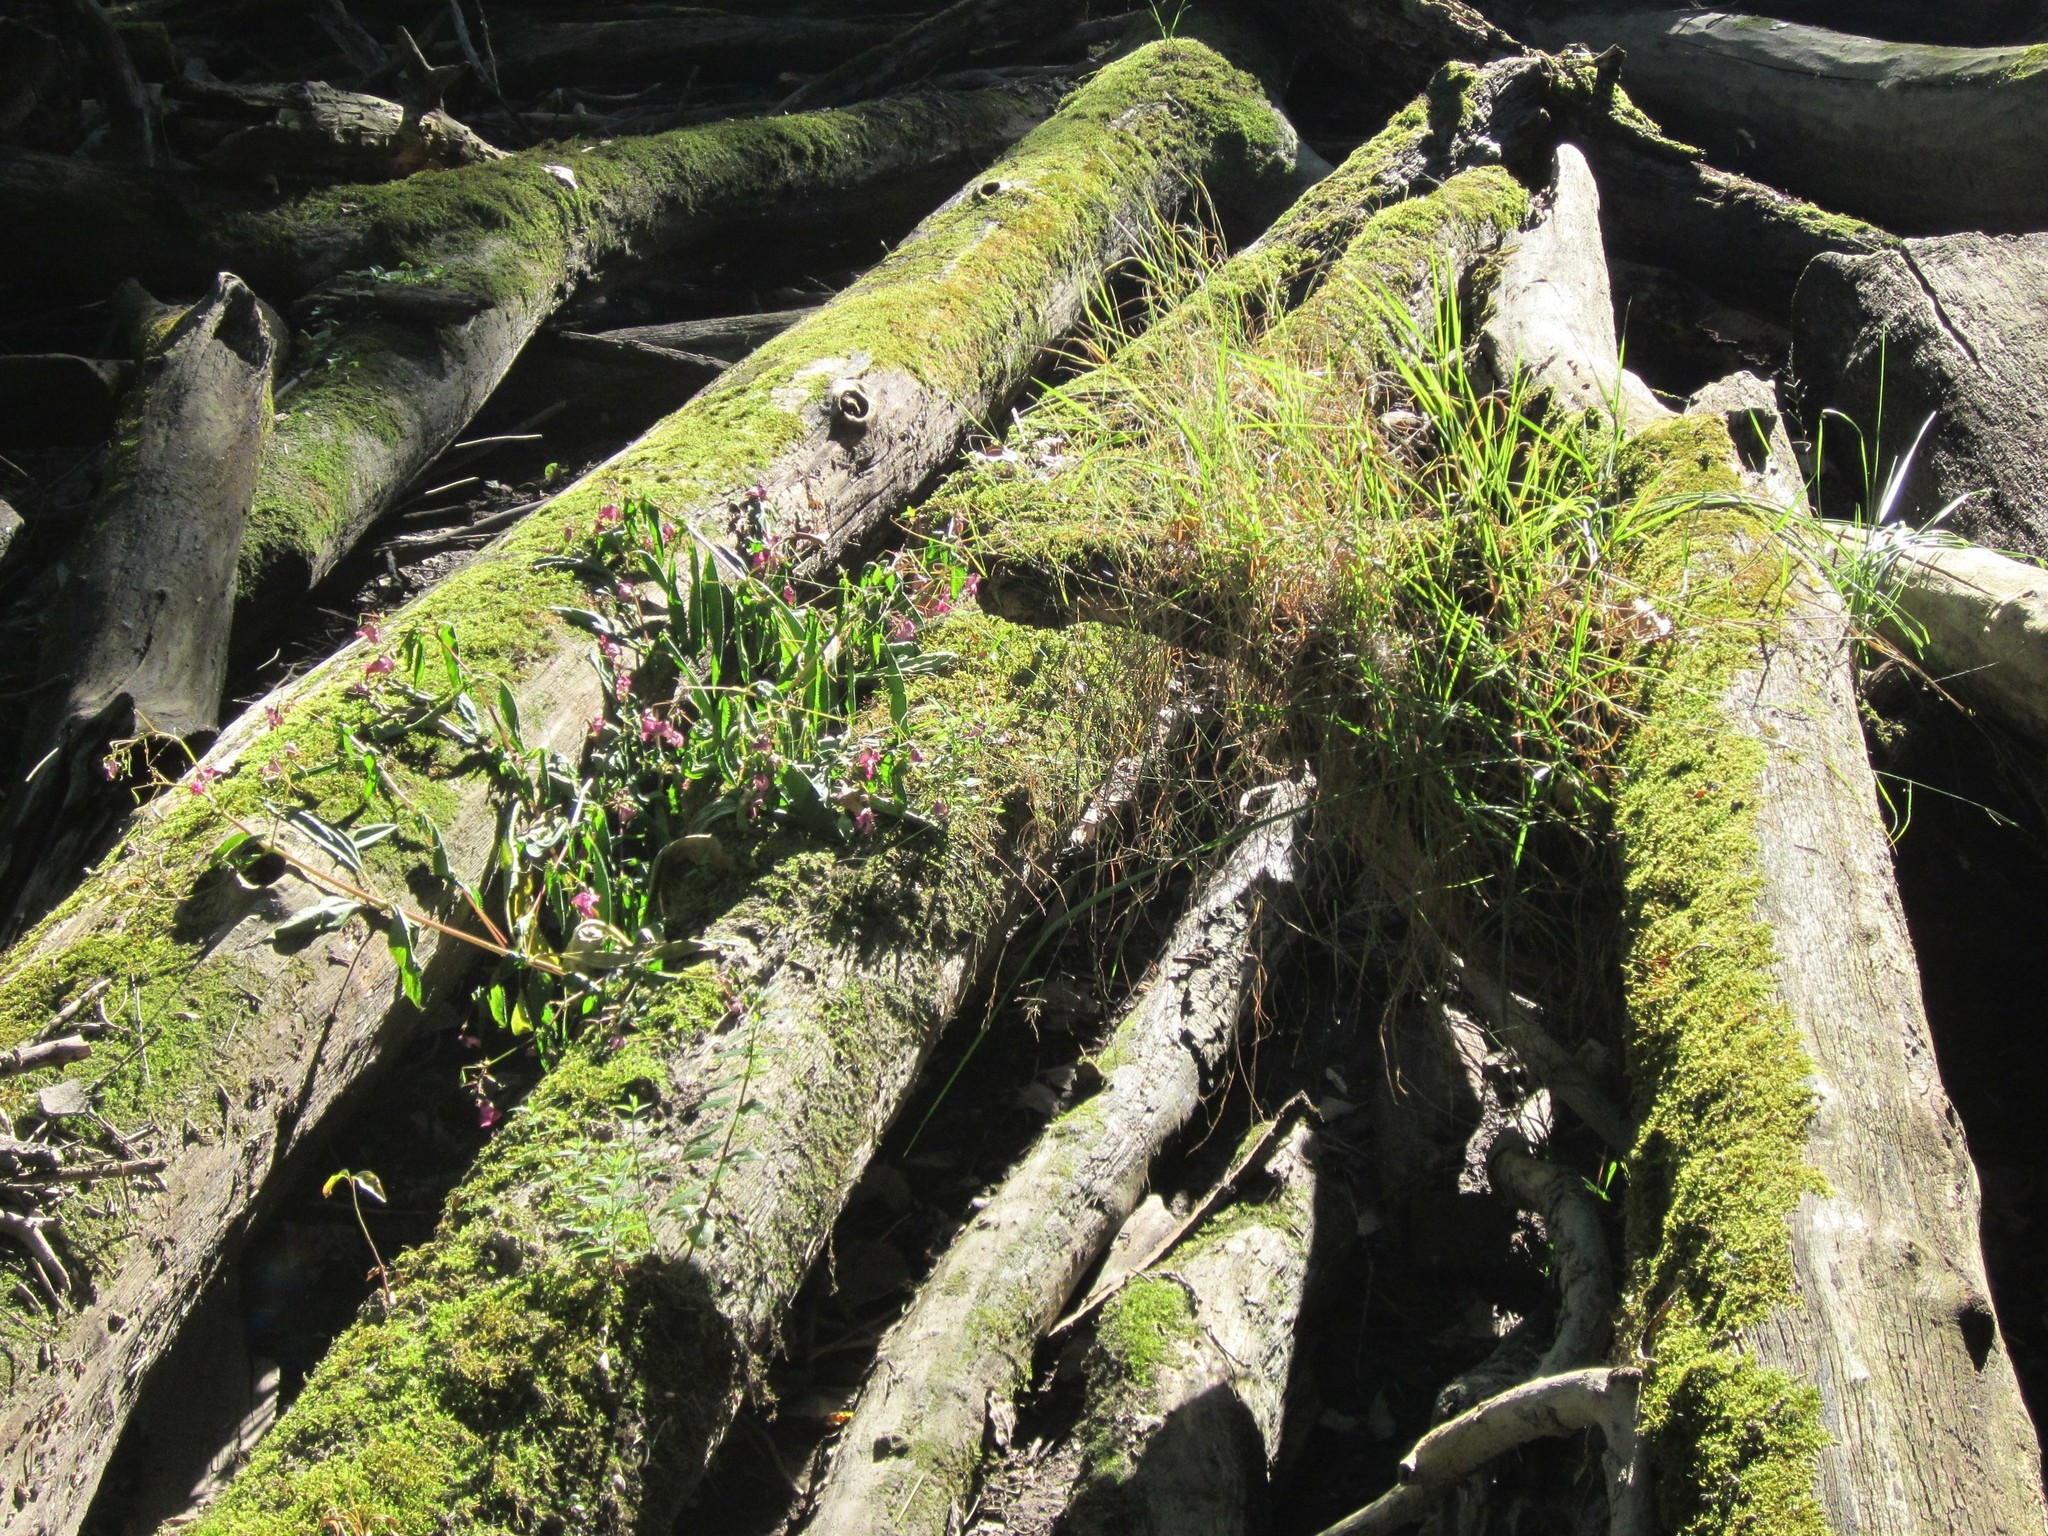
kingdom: Plantae
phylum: Tracheophyta
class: Magnoliopsida
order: Ericales
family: Balsaminaceae
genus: Impatiens
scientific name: Impatiens glandulifera
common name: Himalayan balsam
